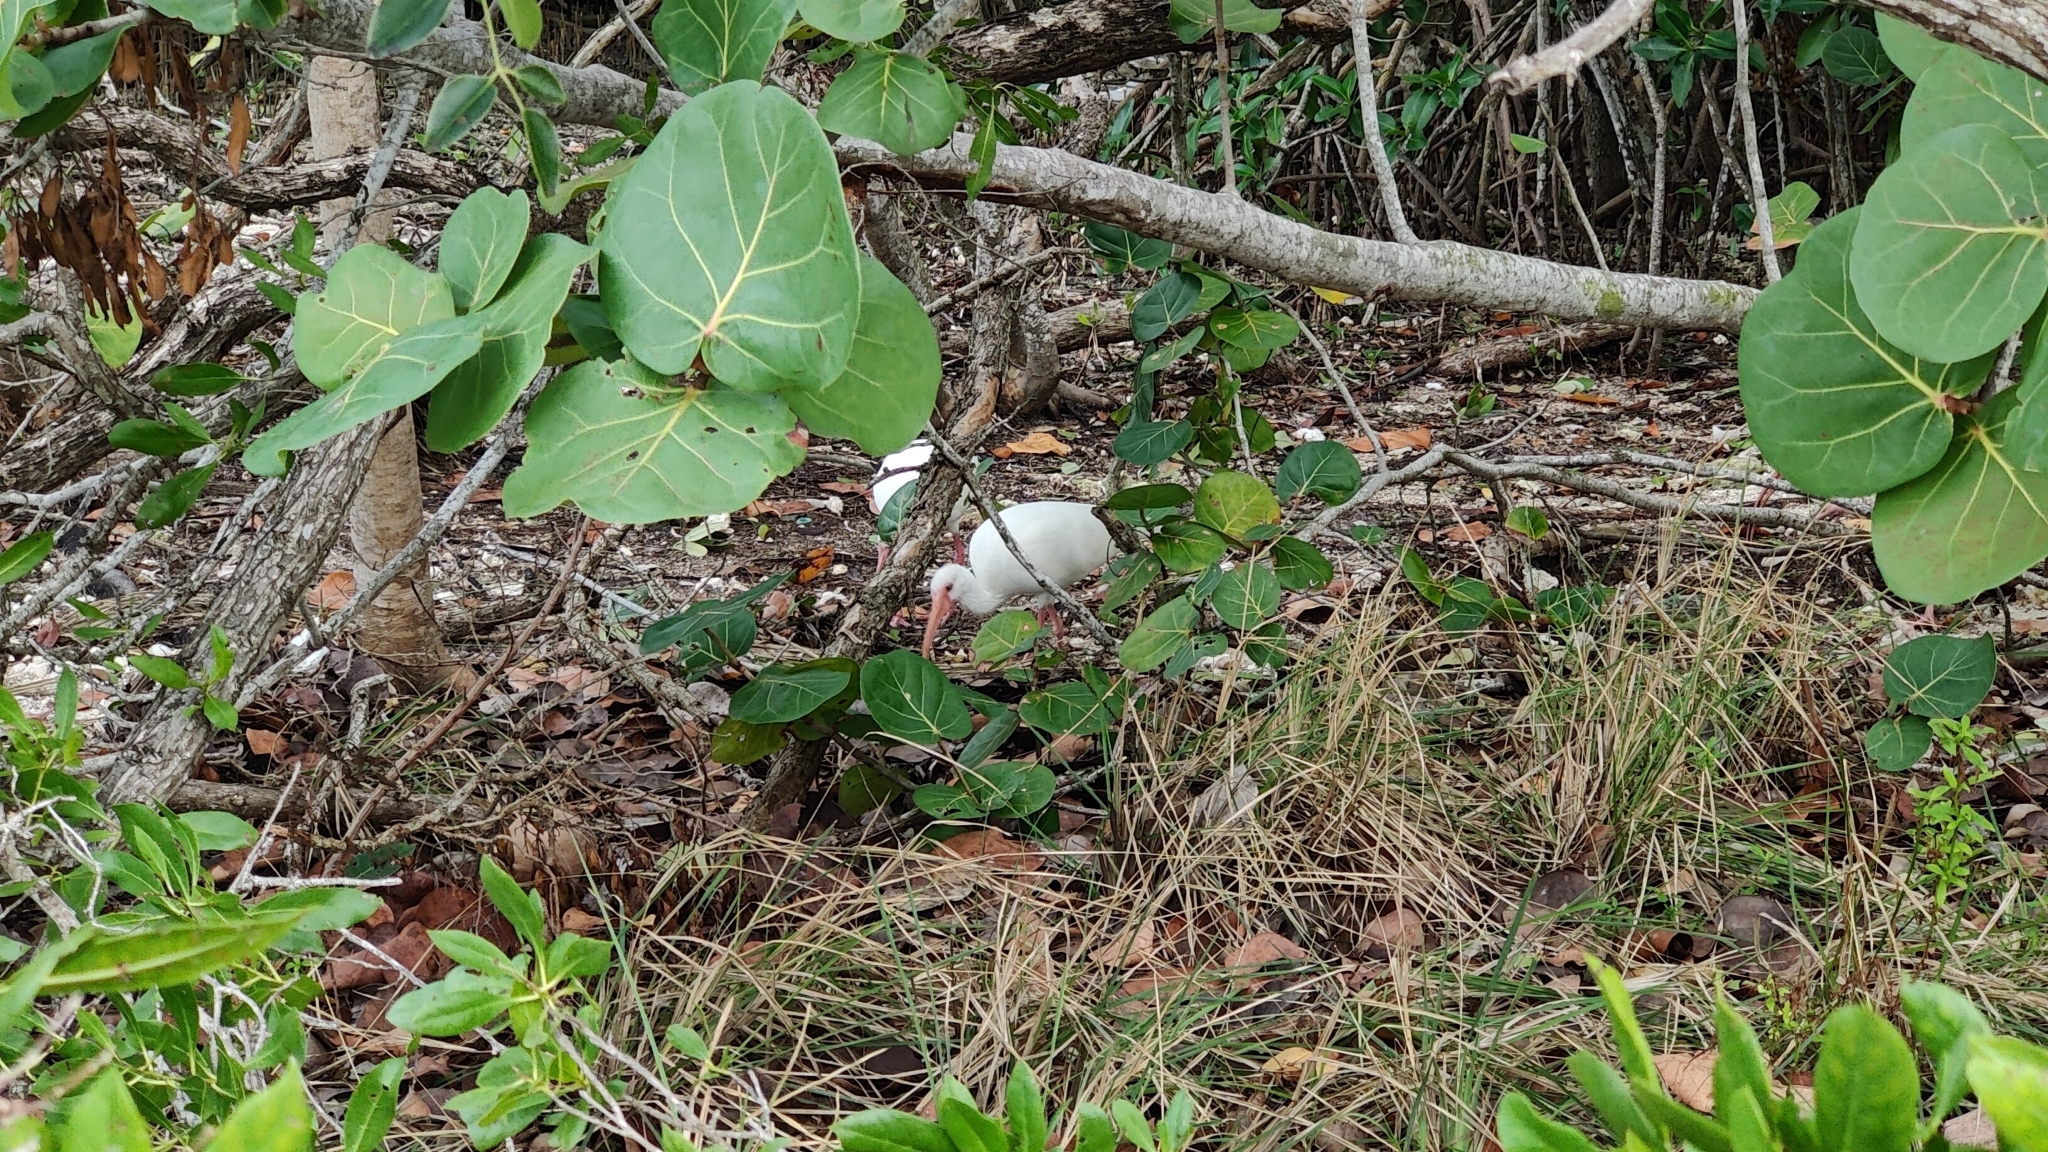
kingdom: Animalia
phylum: Chordata
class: Aves
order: Pelecaniformes
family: Threskiornithidae
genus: Eudocimus
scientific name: Eudocimus albus
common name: White ibis
